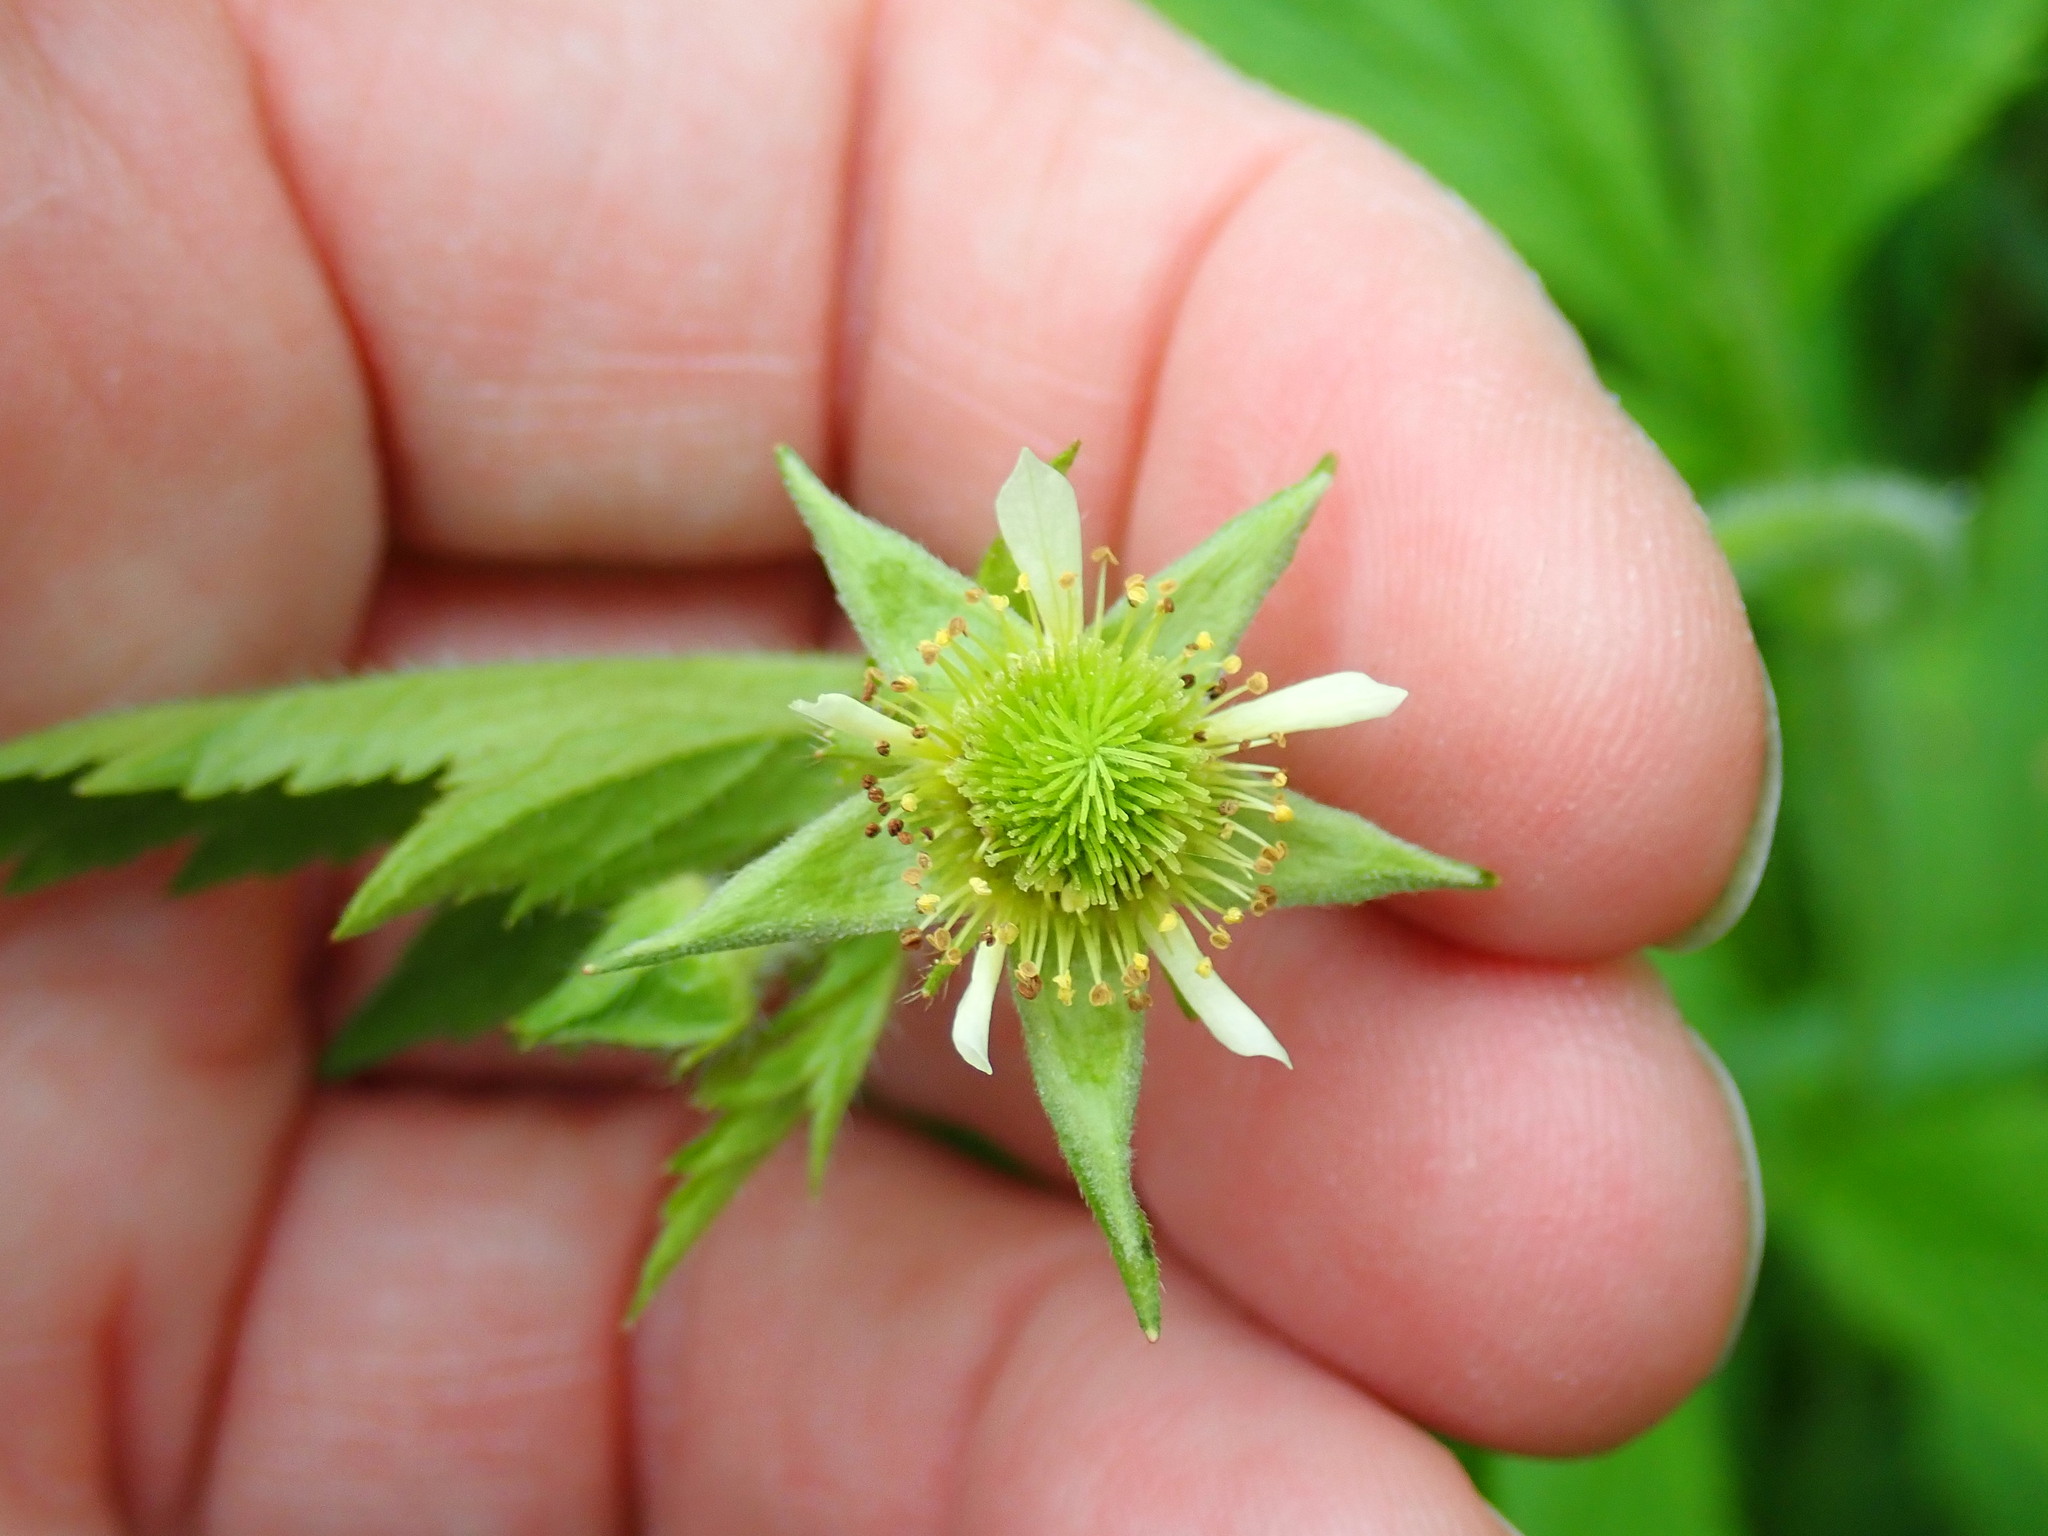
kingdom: Plantae
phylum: Tracheophyta
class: Magnoliopsida
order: Rosales
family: Rosaceae
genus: Geum
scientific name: Geum laciniatum
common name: Rough avens
